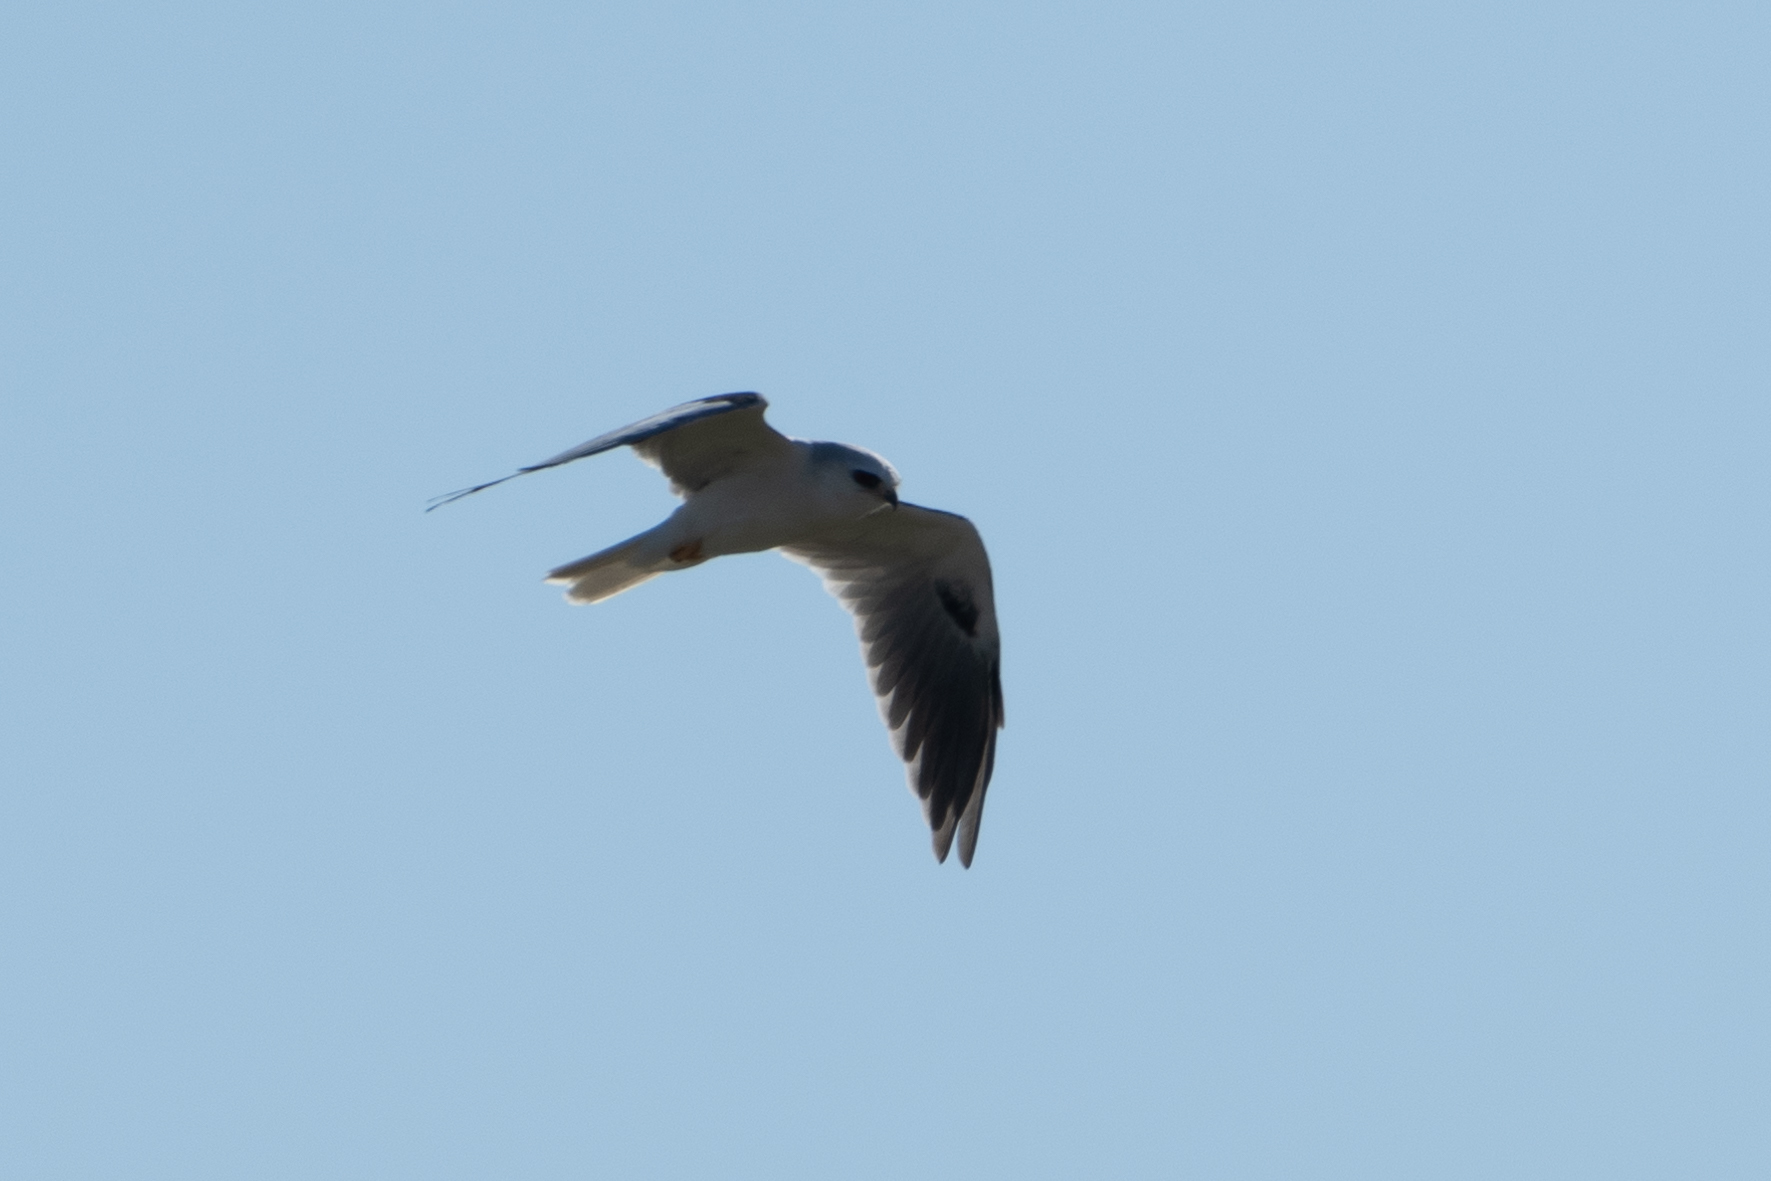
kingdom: Animalia
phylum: Chordata
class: Aves
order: Accipitriformes
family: Accipitridae
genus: Elanus
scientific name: Elanus leucurus
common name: White-tailed kite
